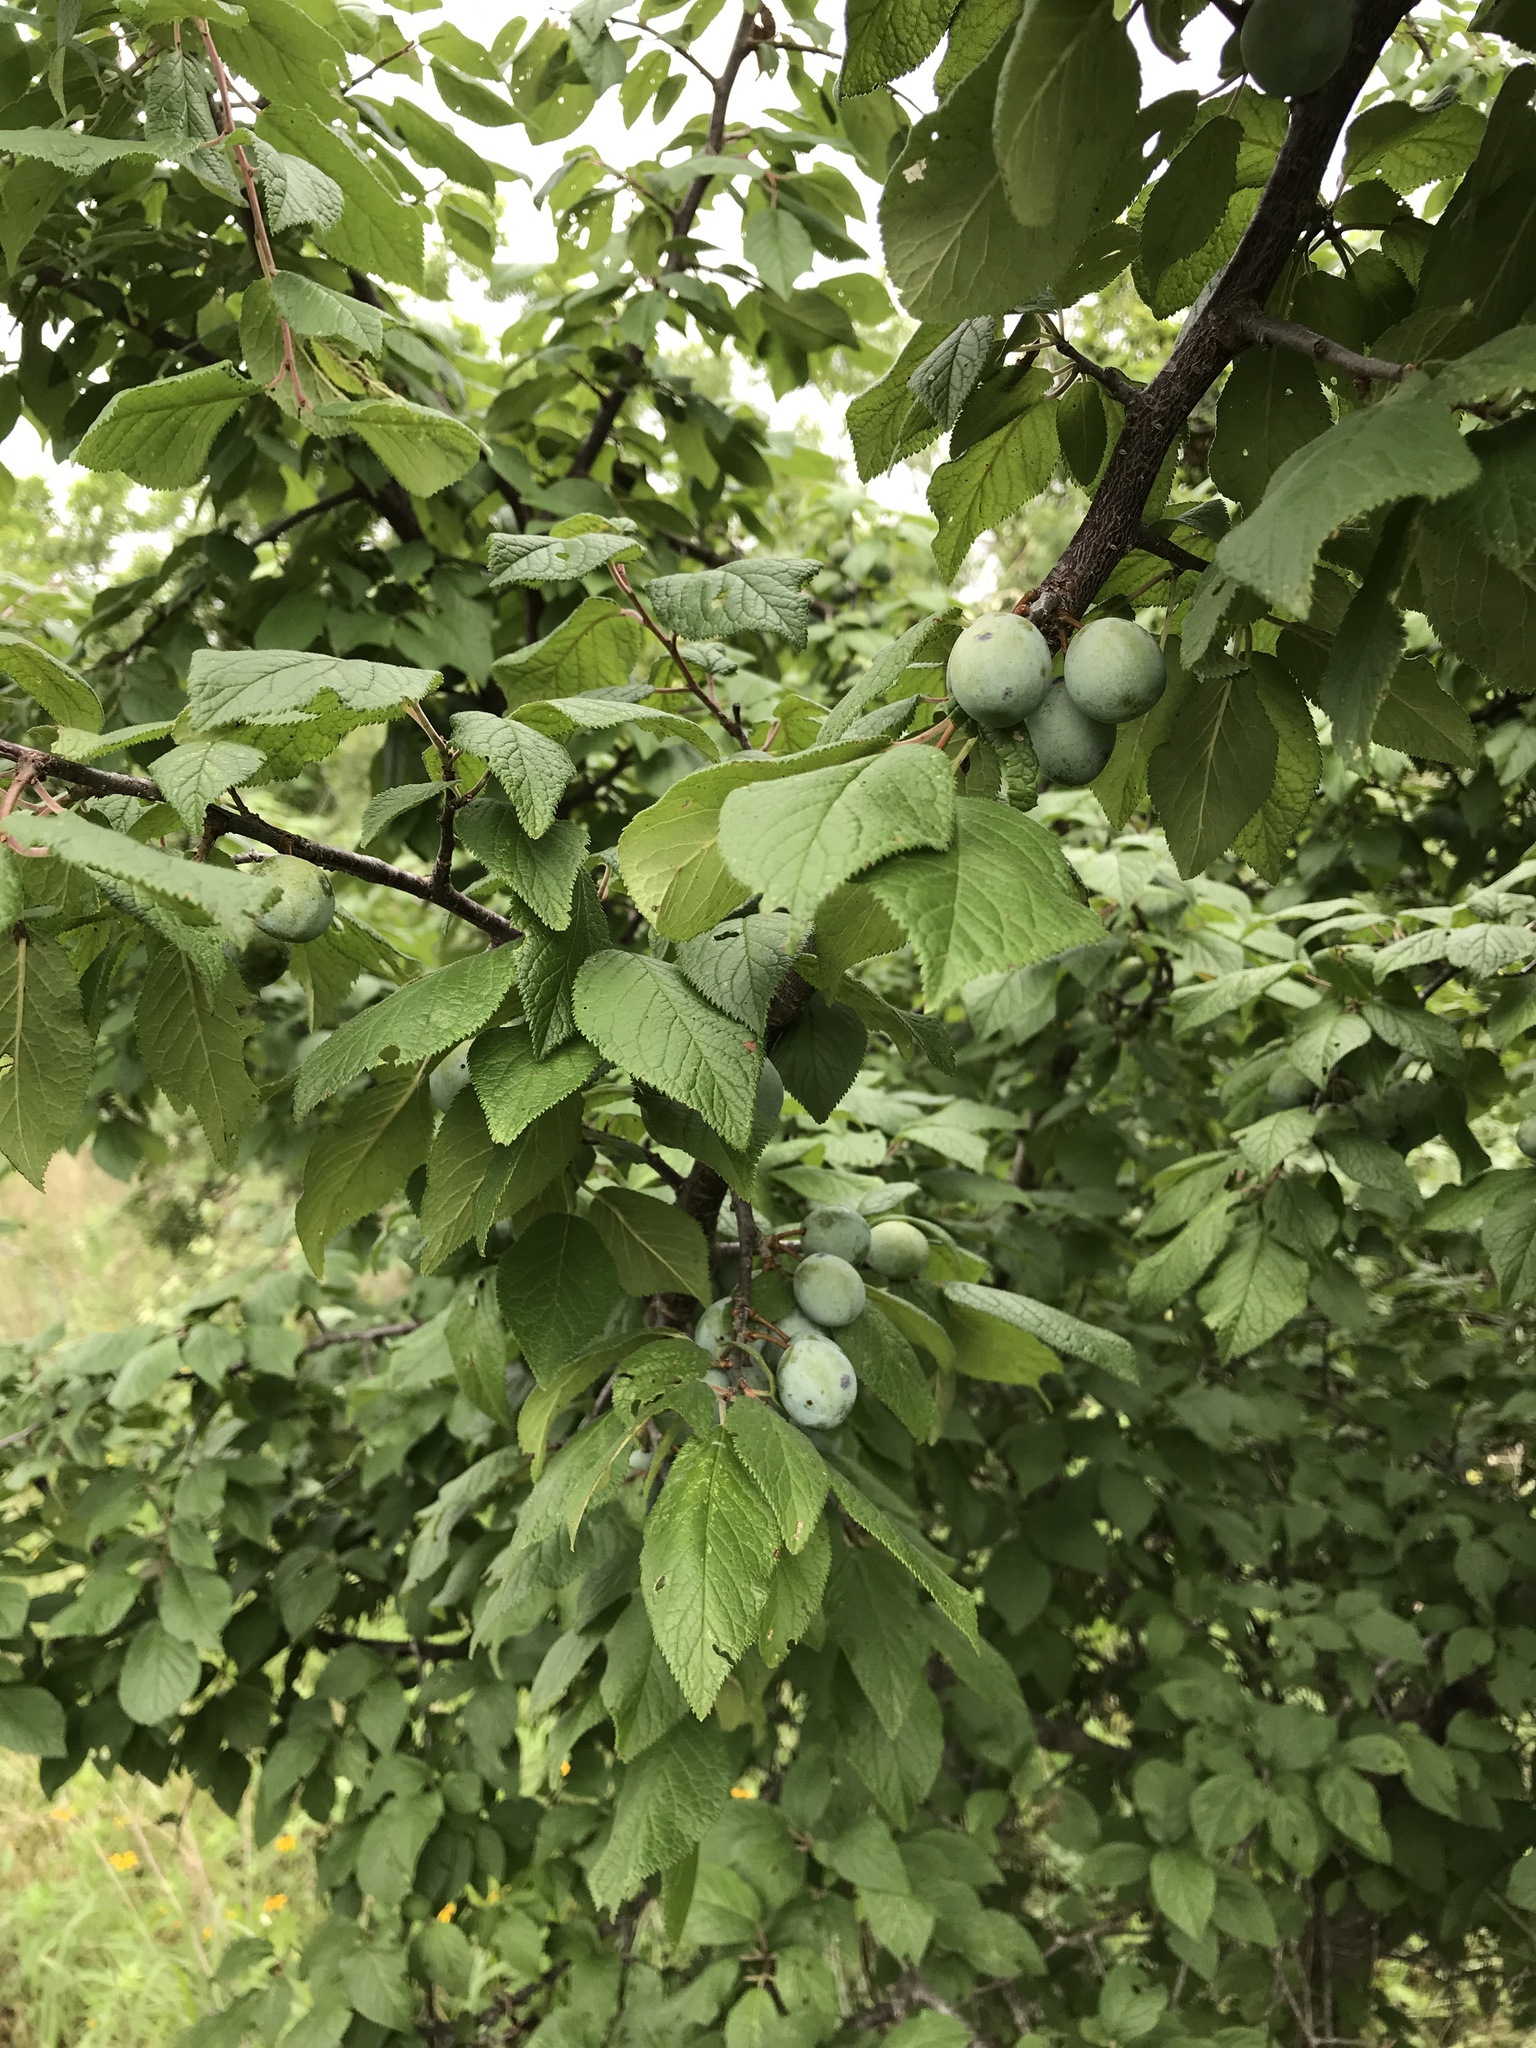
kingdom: Plantae
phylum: Tracheophyta
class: Magnoliopsida
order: Rosales
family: Rosaceae
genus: Prunus
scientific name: Prunus mexicana
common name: Mexican plum
